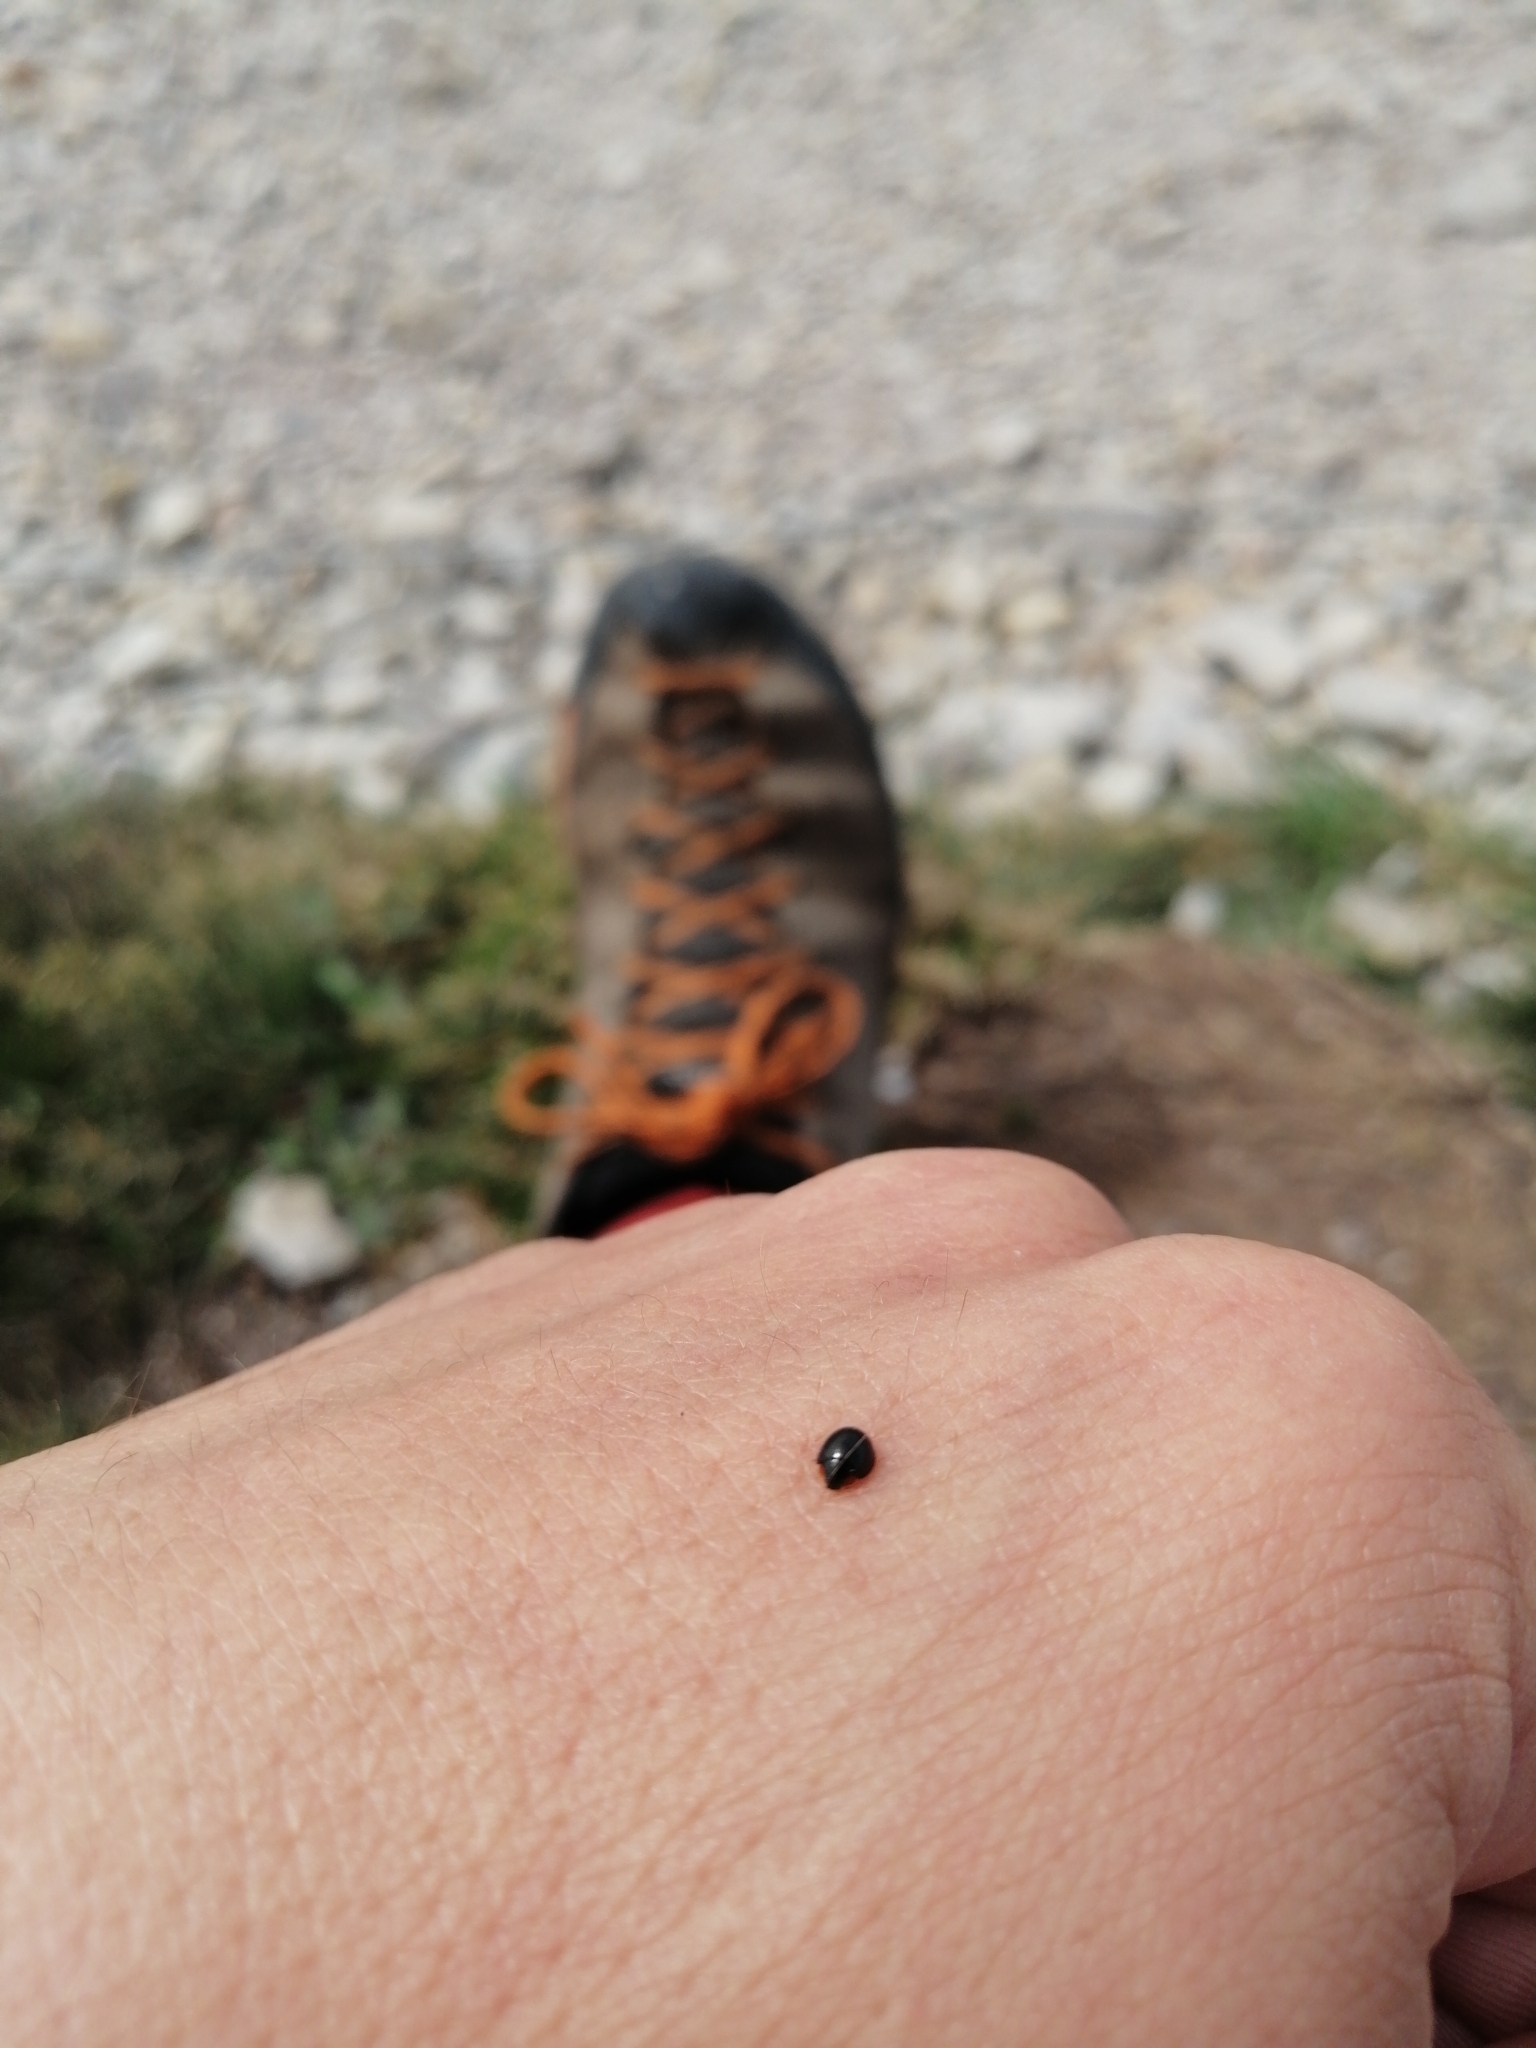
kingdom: Animalia
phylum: Arthropoda
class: Insecta
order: Coleoptera
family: Coccinellidae
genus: Parexochomus
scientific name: Parexochomus nigromaculatus
